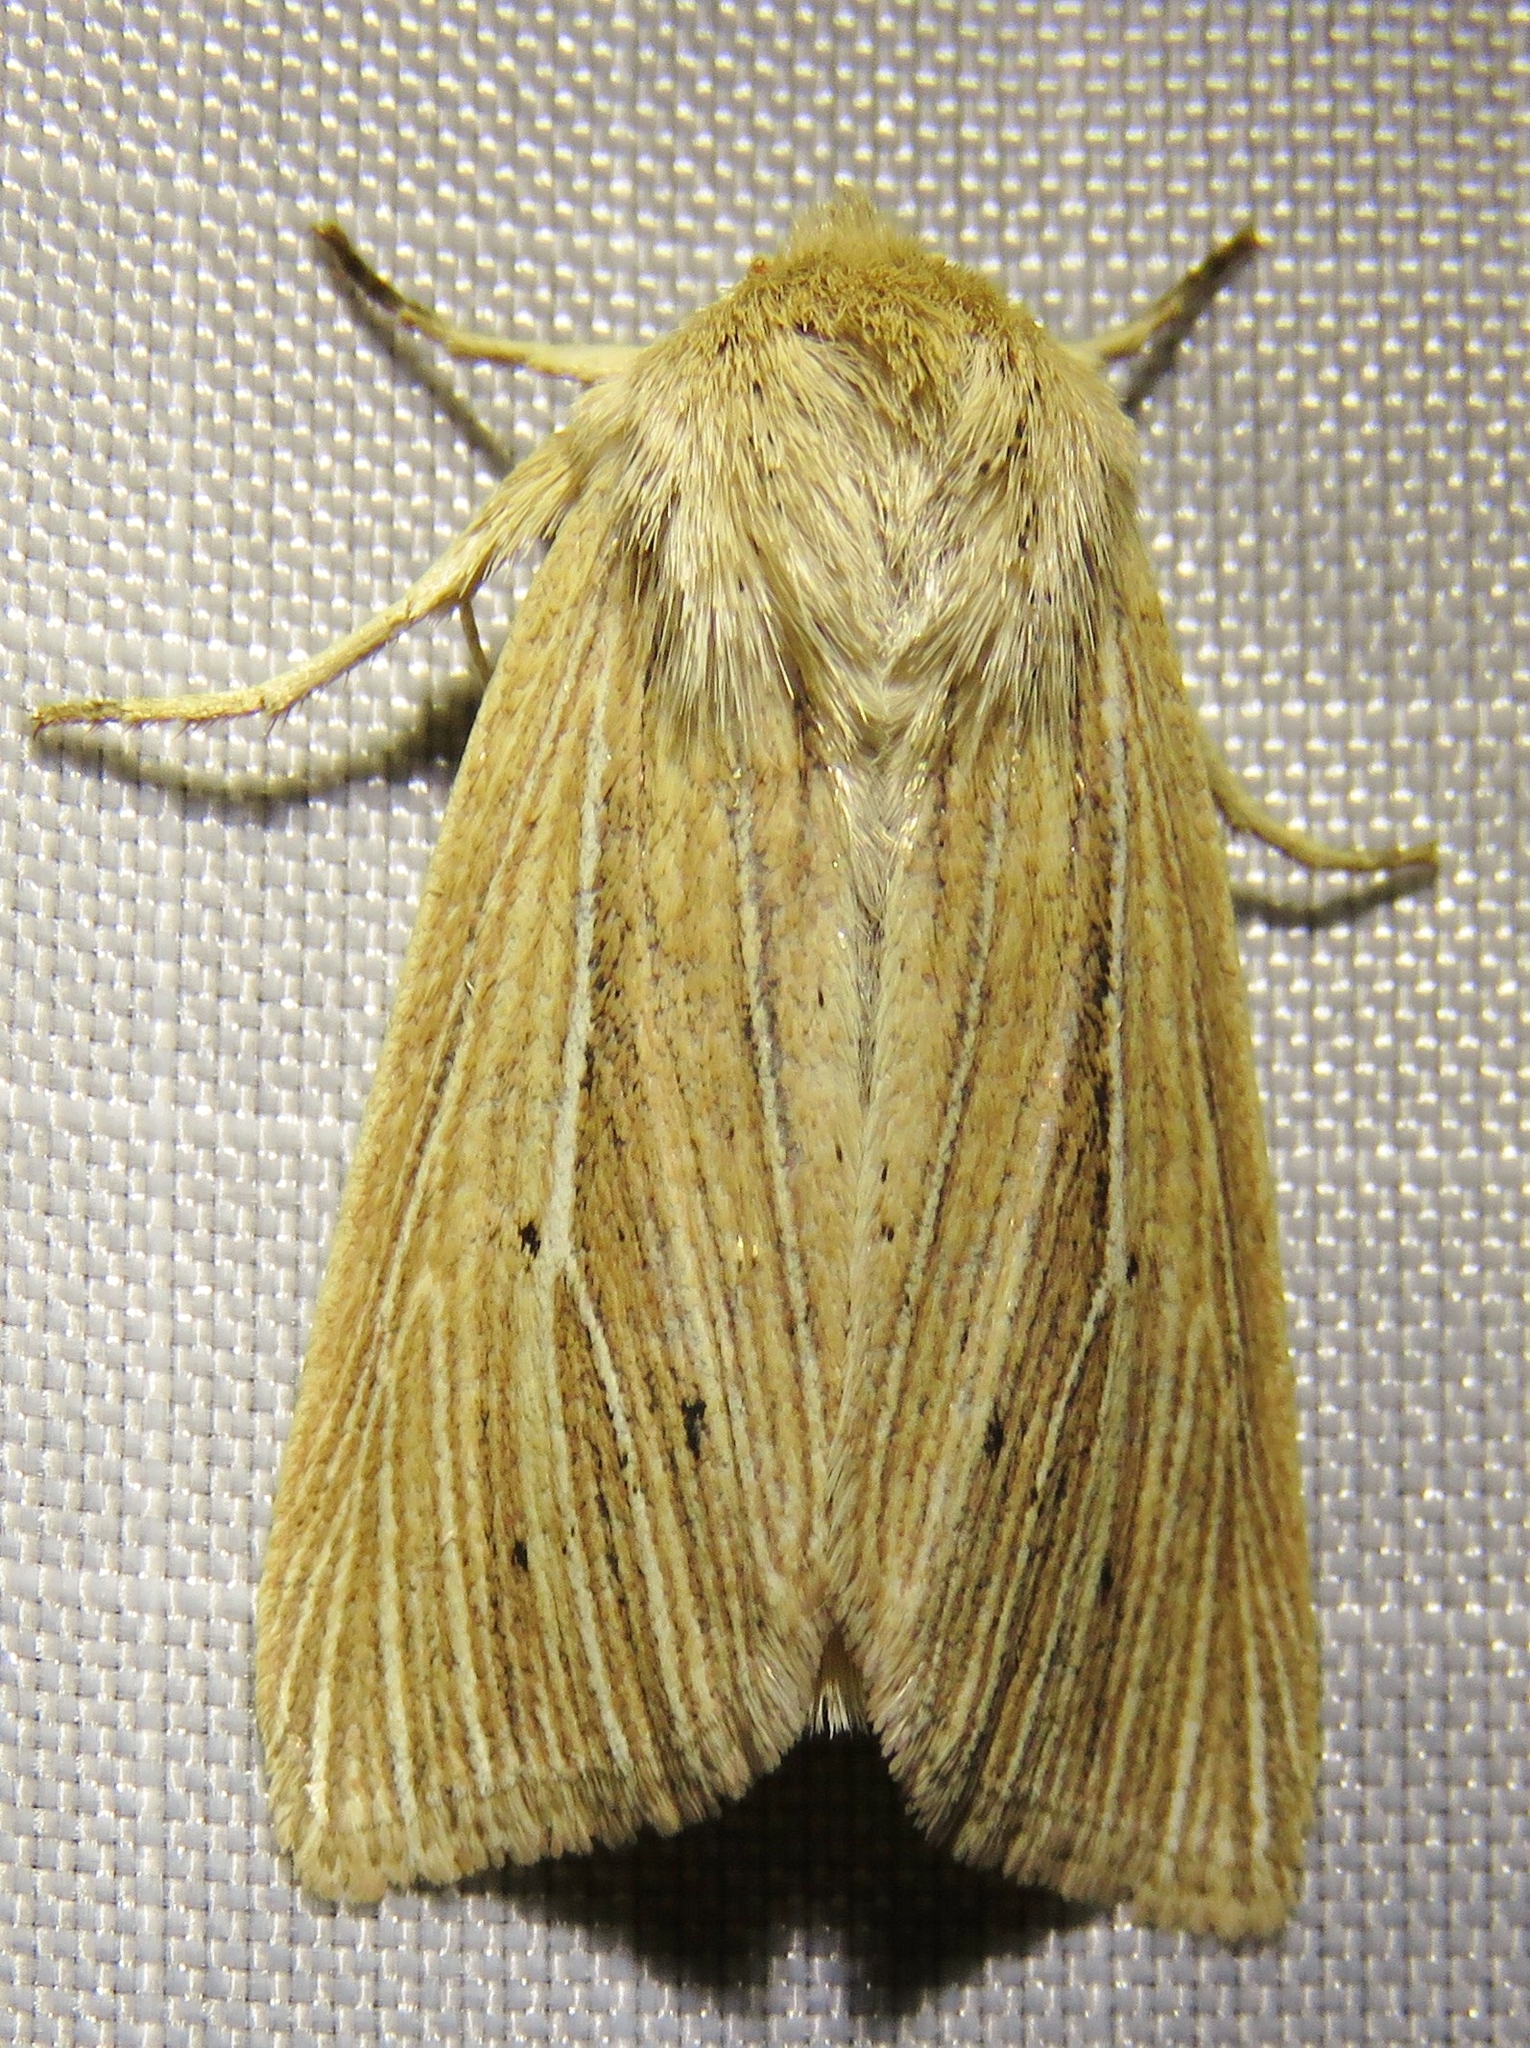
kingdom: Animalia
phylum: Arthropoda
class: Insecta
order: Lepidoptera
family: Noctuidae
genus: Mythimna
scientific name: Mythimna impura
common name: Smoky wainscot
